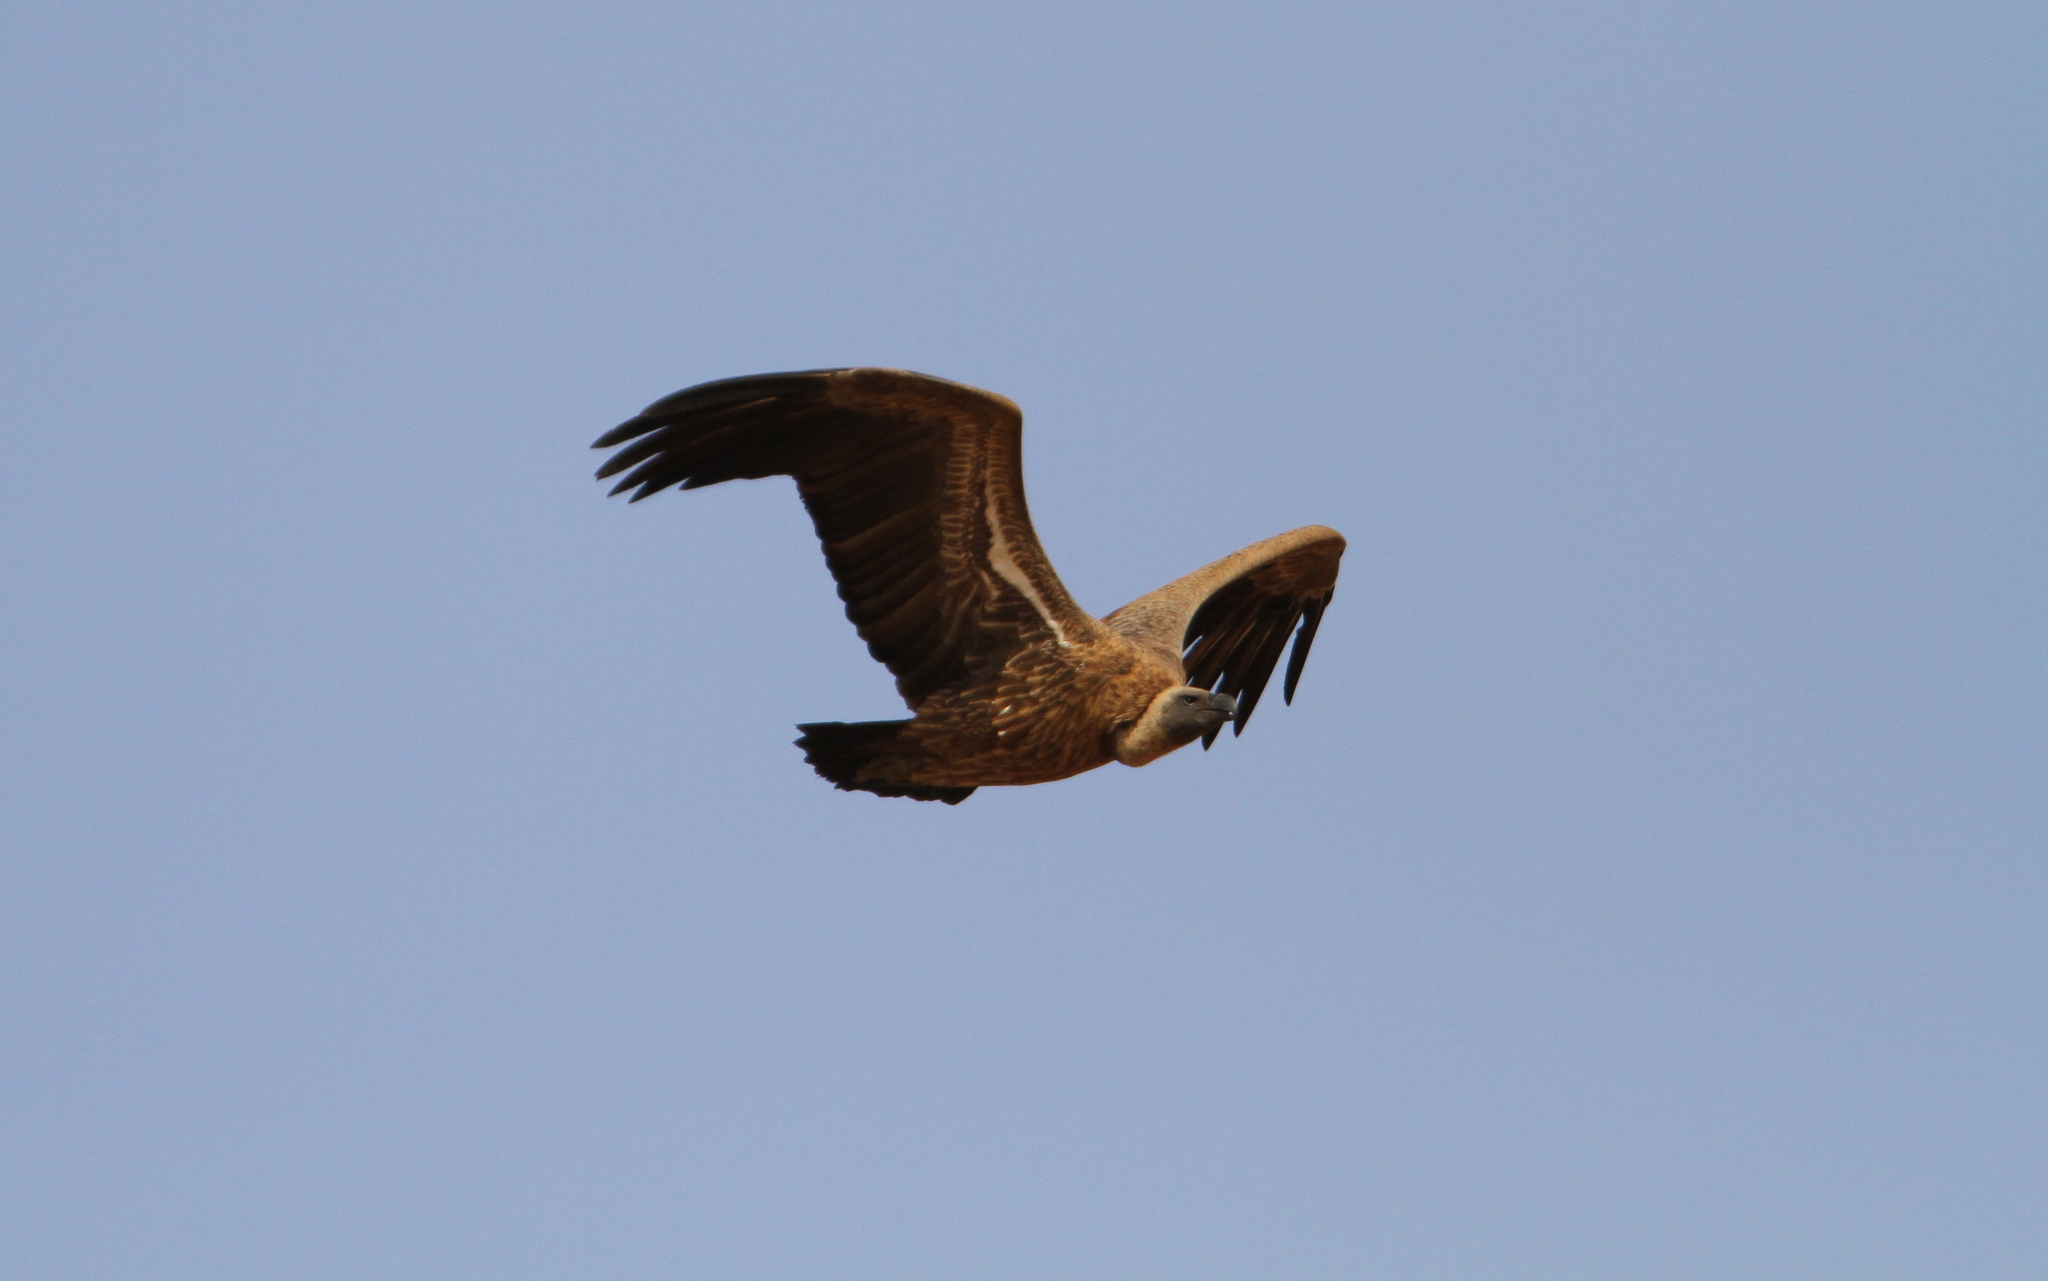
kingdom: Animalia
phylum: Chordata
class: Aves
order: Accipitriformes
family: Accipitridae
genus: Gyps
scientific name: Gyps africanus
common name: White-backed vulture
